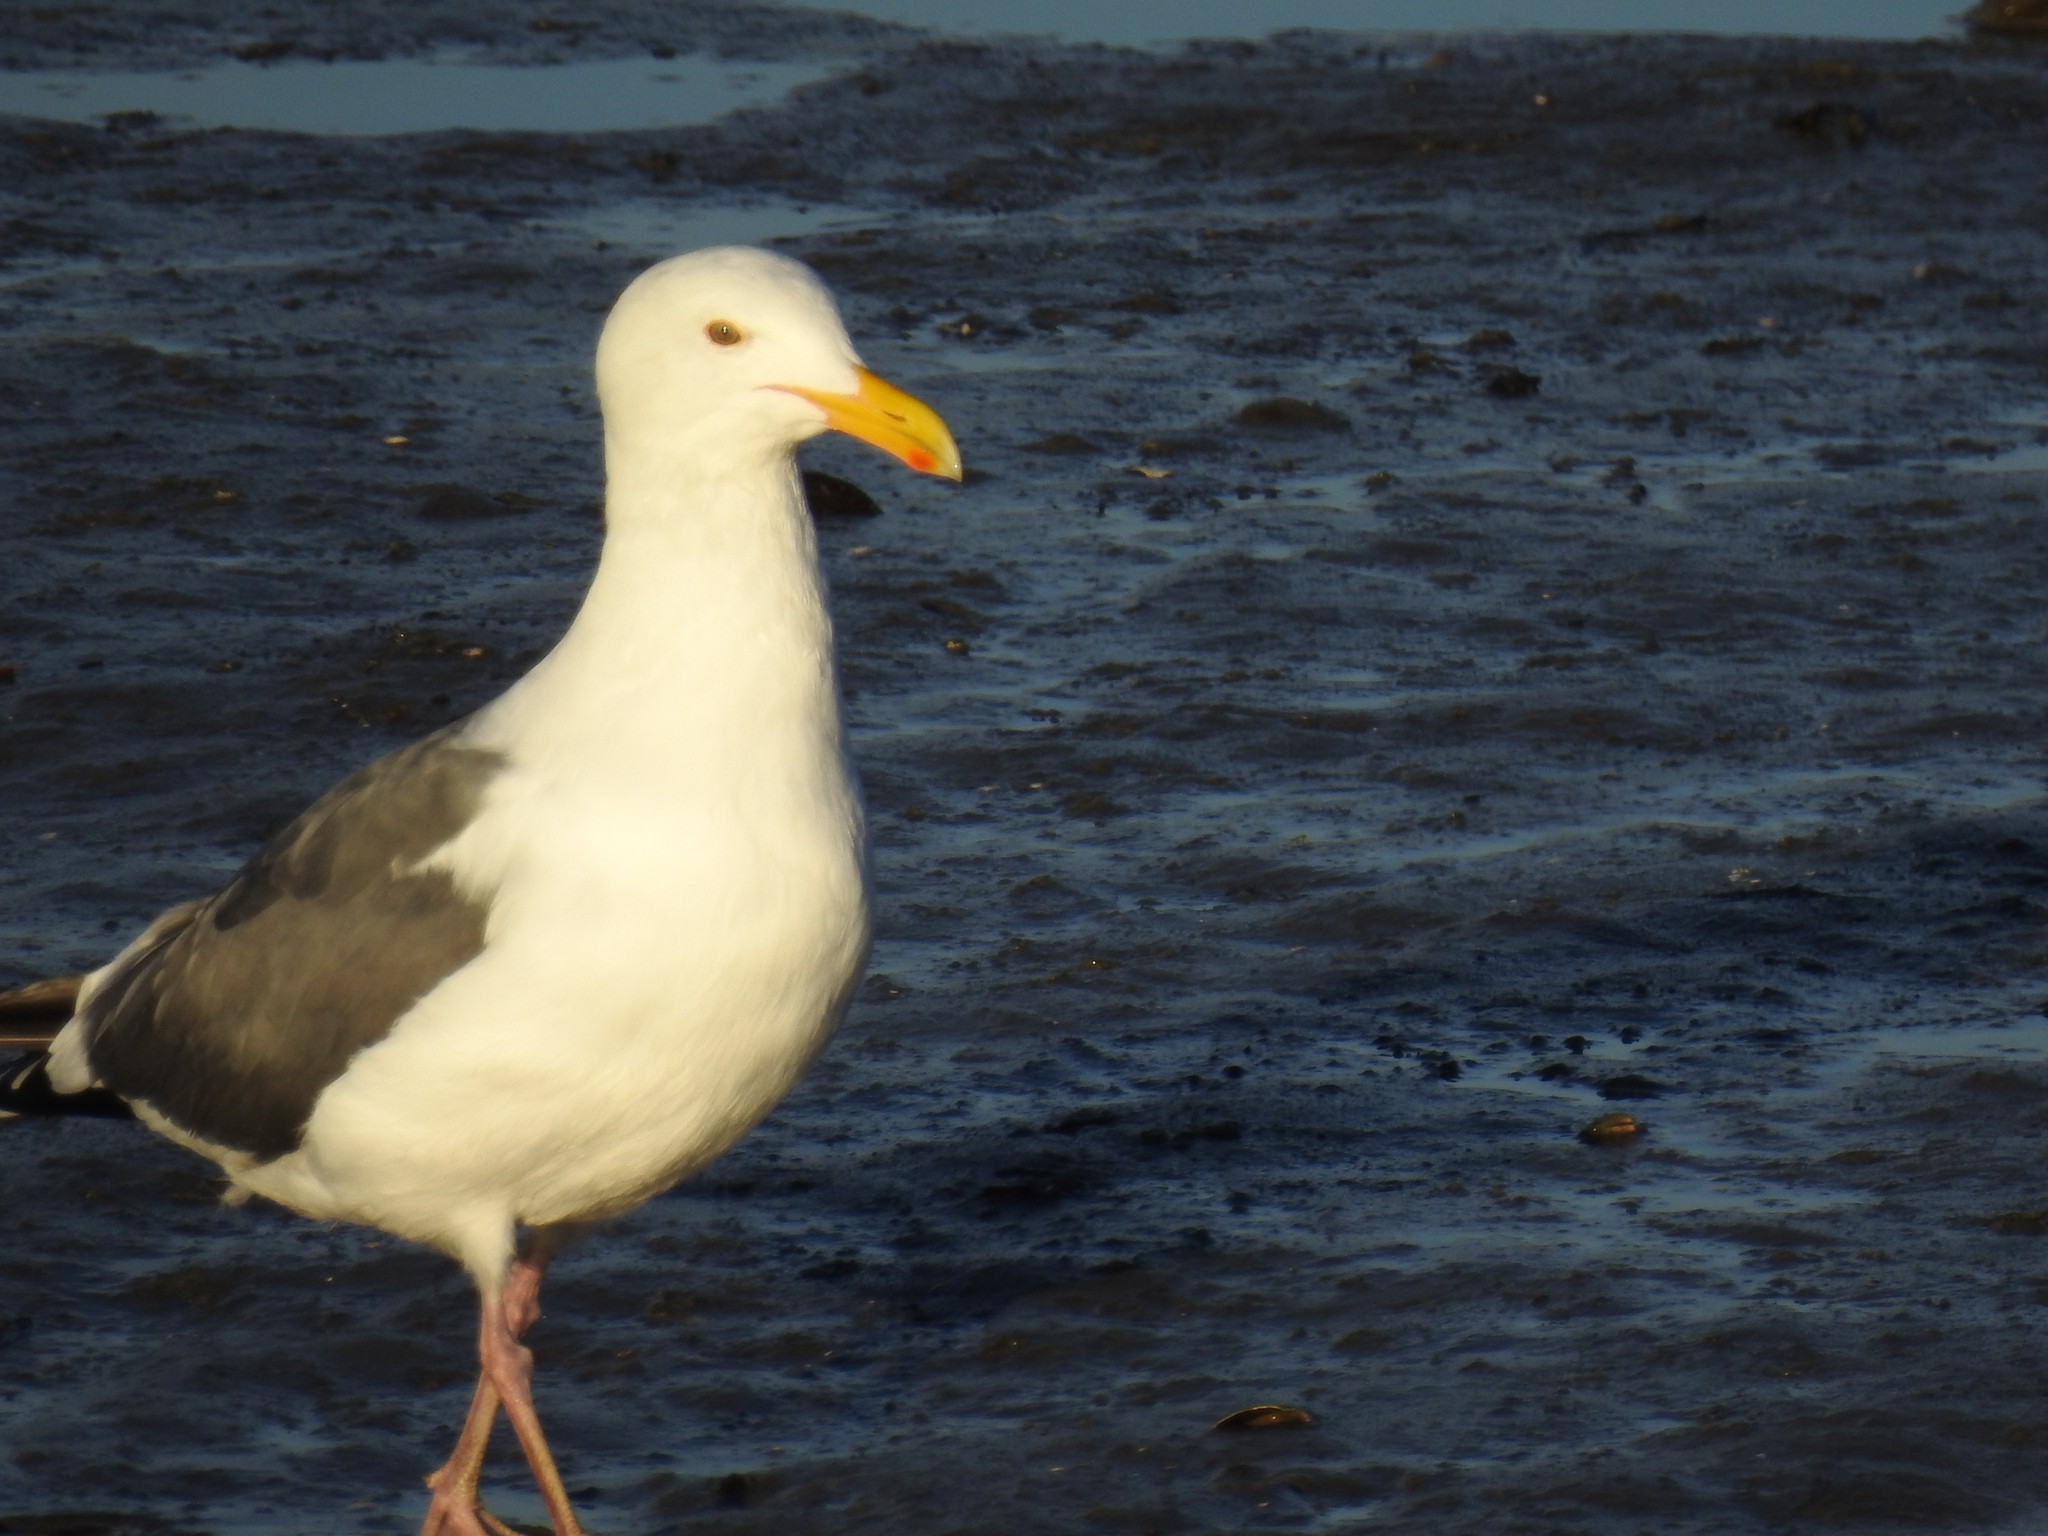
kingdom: Animalia
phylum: Chordata
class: Aves
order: Charadriiformes
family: Laridae
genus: Larus
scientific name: Larus occidentalis
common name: Western gull
